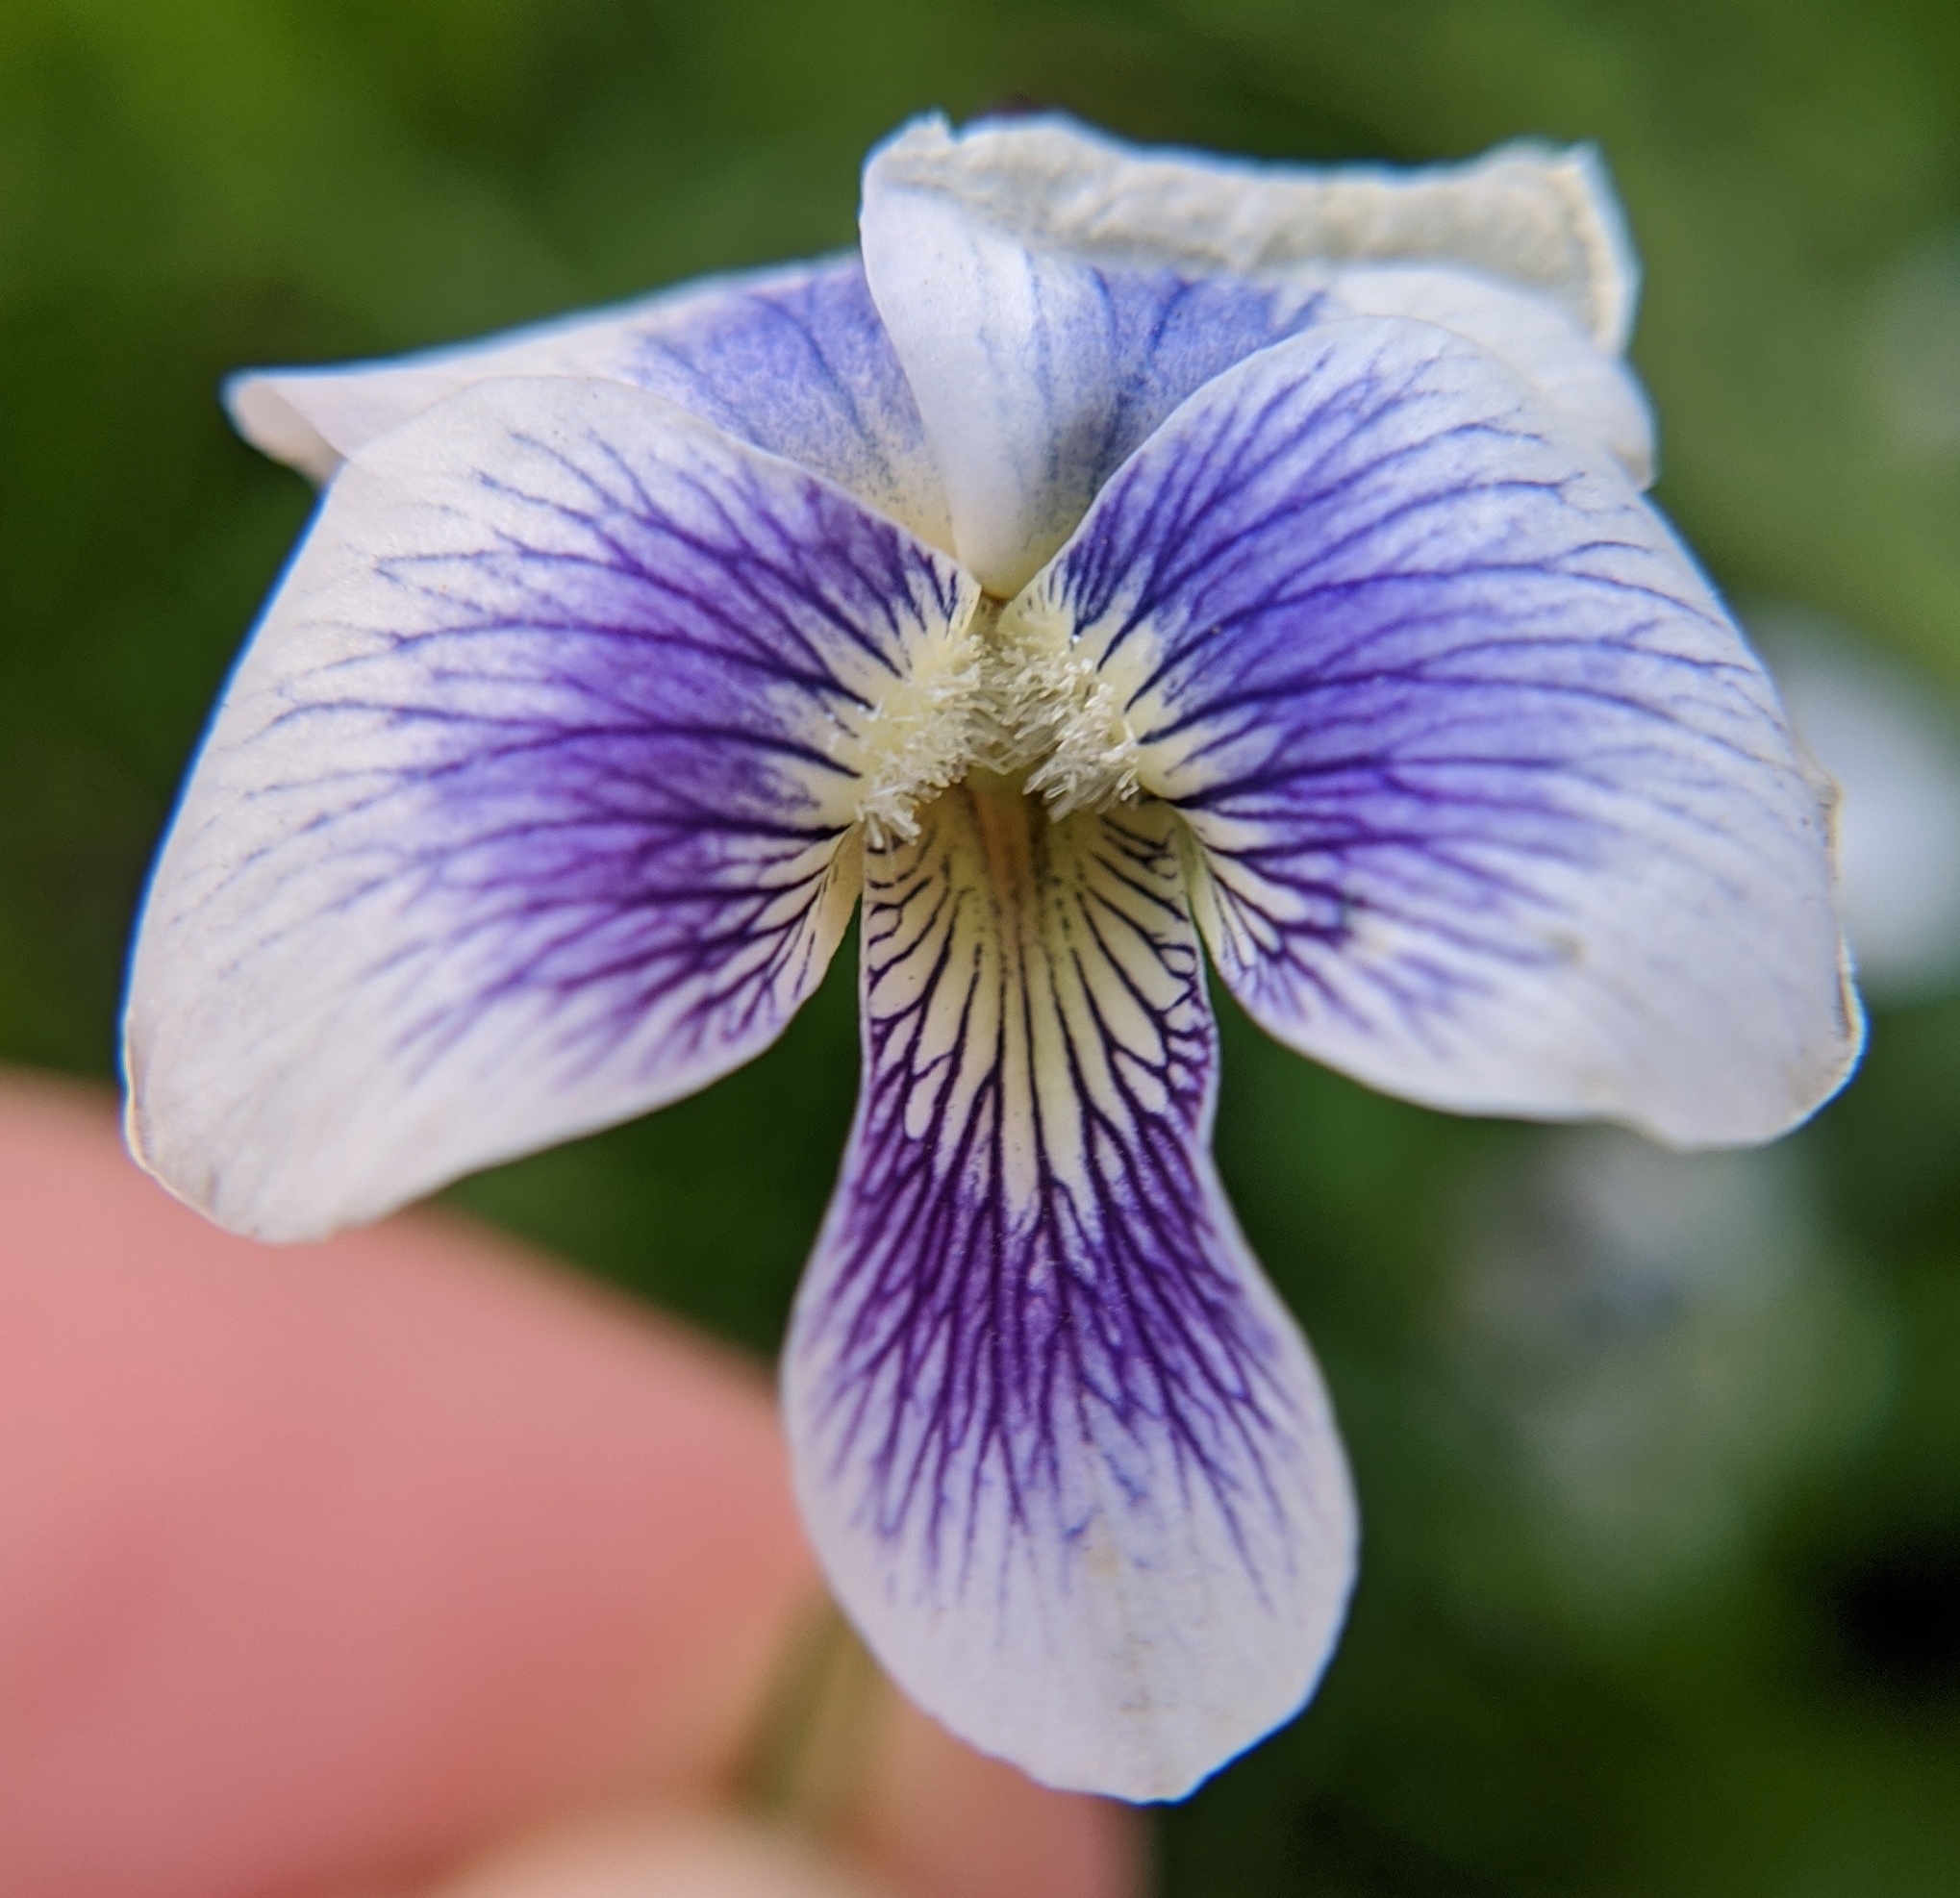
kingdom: Plantae
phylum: Tracheophyta
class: Magnoliopsida
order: Malpighiales
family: Violaceae
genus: Viola
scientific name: Viola sororia
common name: Dooryard violet
